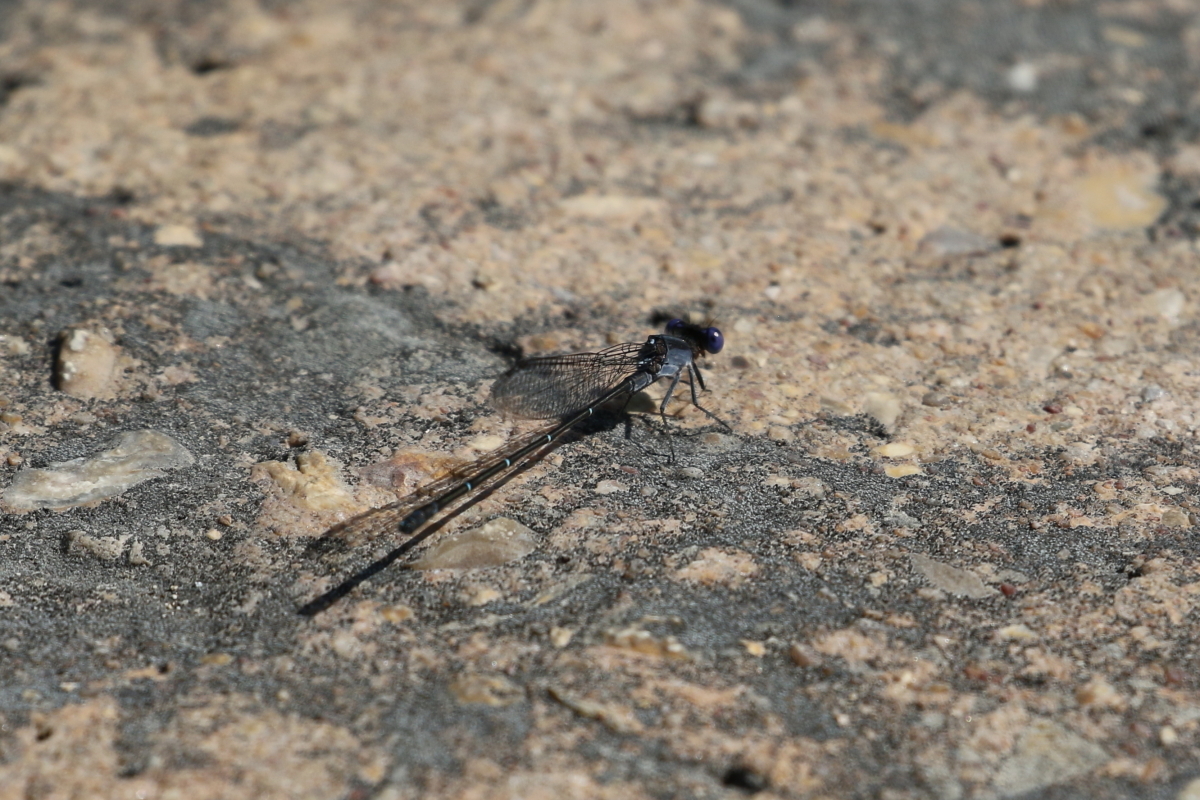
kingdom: Animalia
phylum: Arthropoda
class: Insecta
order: Odonata
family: Coenagrionidae
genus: Argia
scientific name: Argia translata
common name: Dusky dancer
